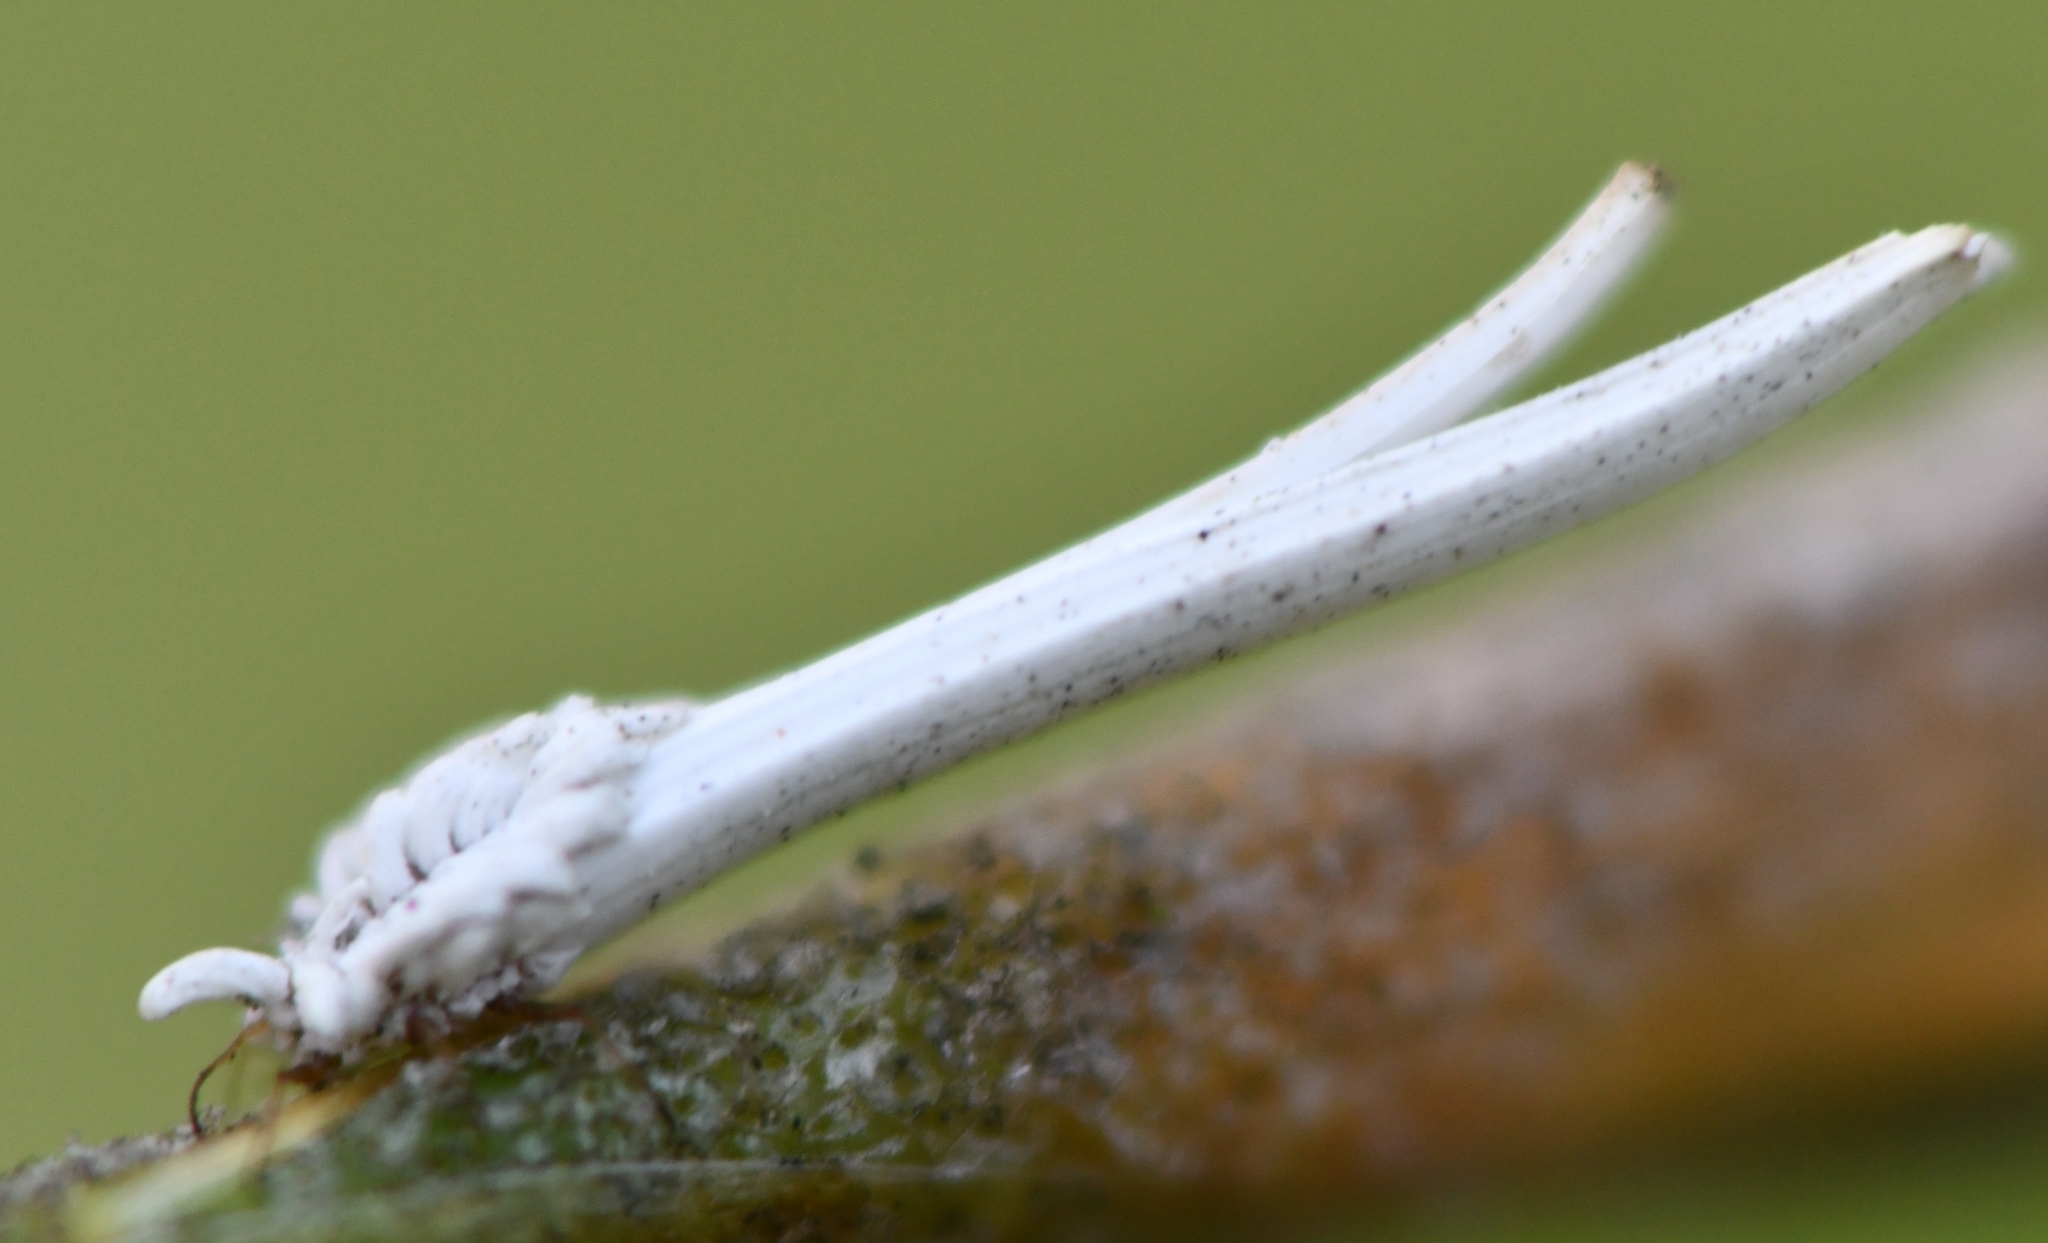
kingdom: Animalia
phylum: Arthropoda
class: Insecta
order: Hemiptera
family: Ortheziidae
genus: Graminorthezia
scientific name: Graminorthezia tillandsiae
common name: Spanish moss orthezia
